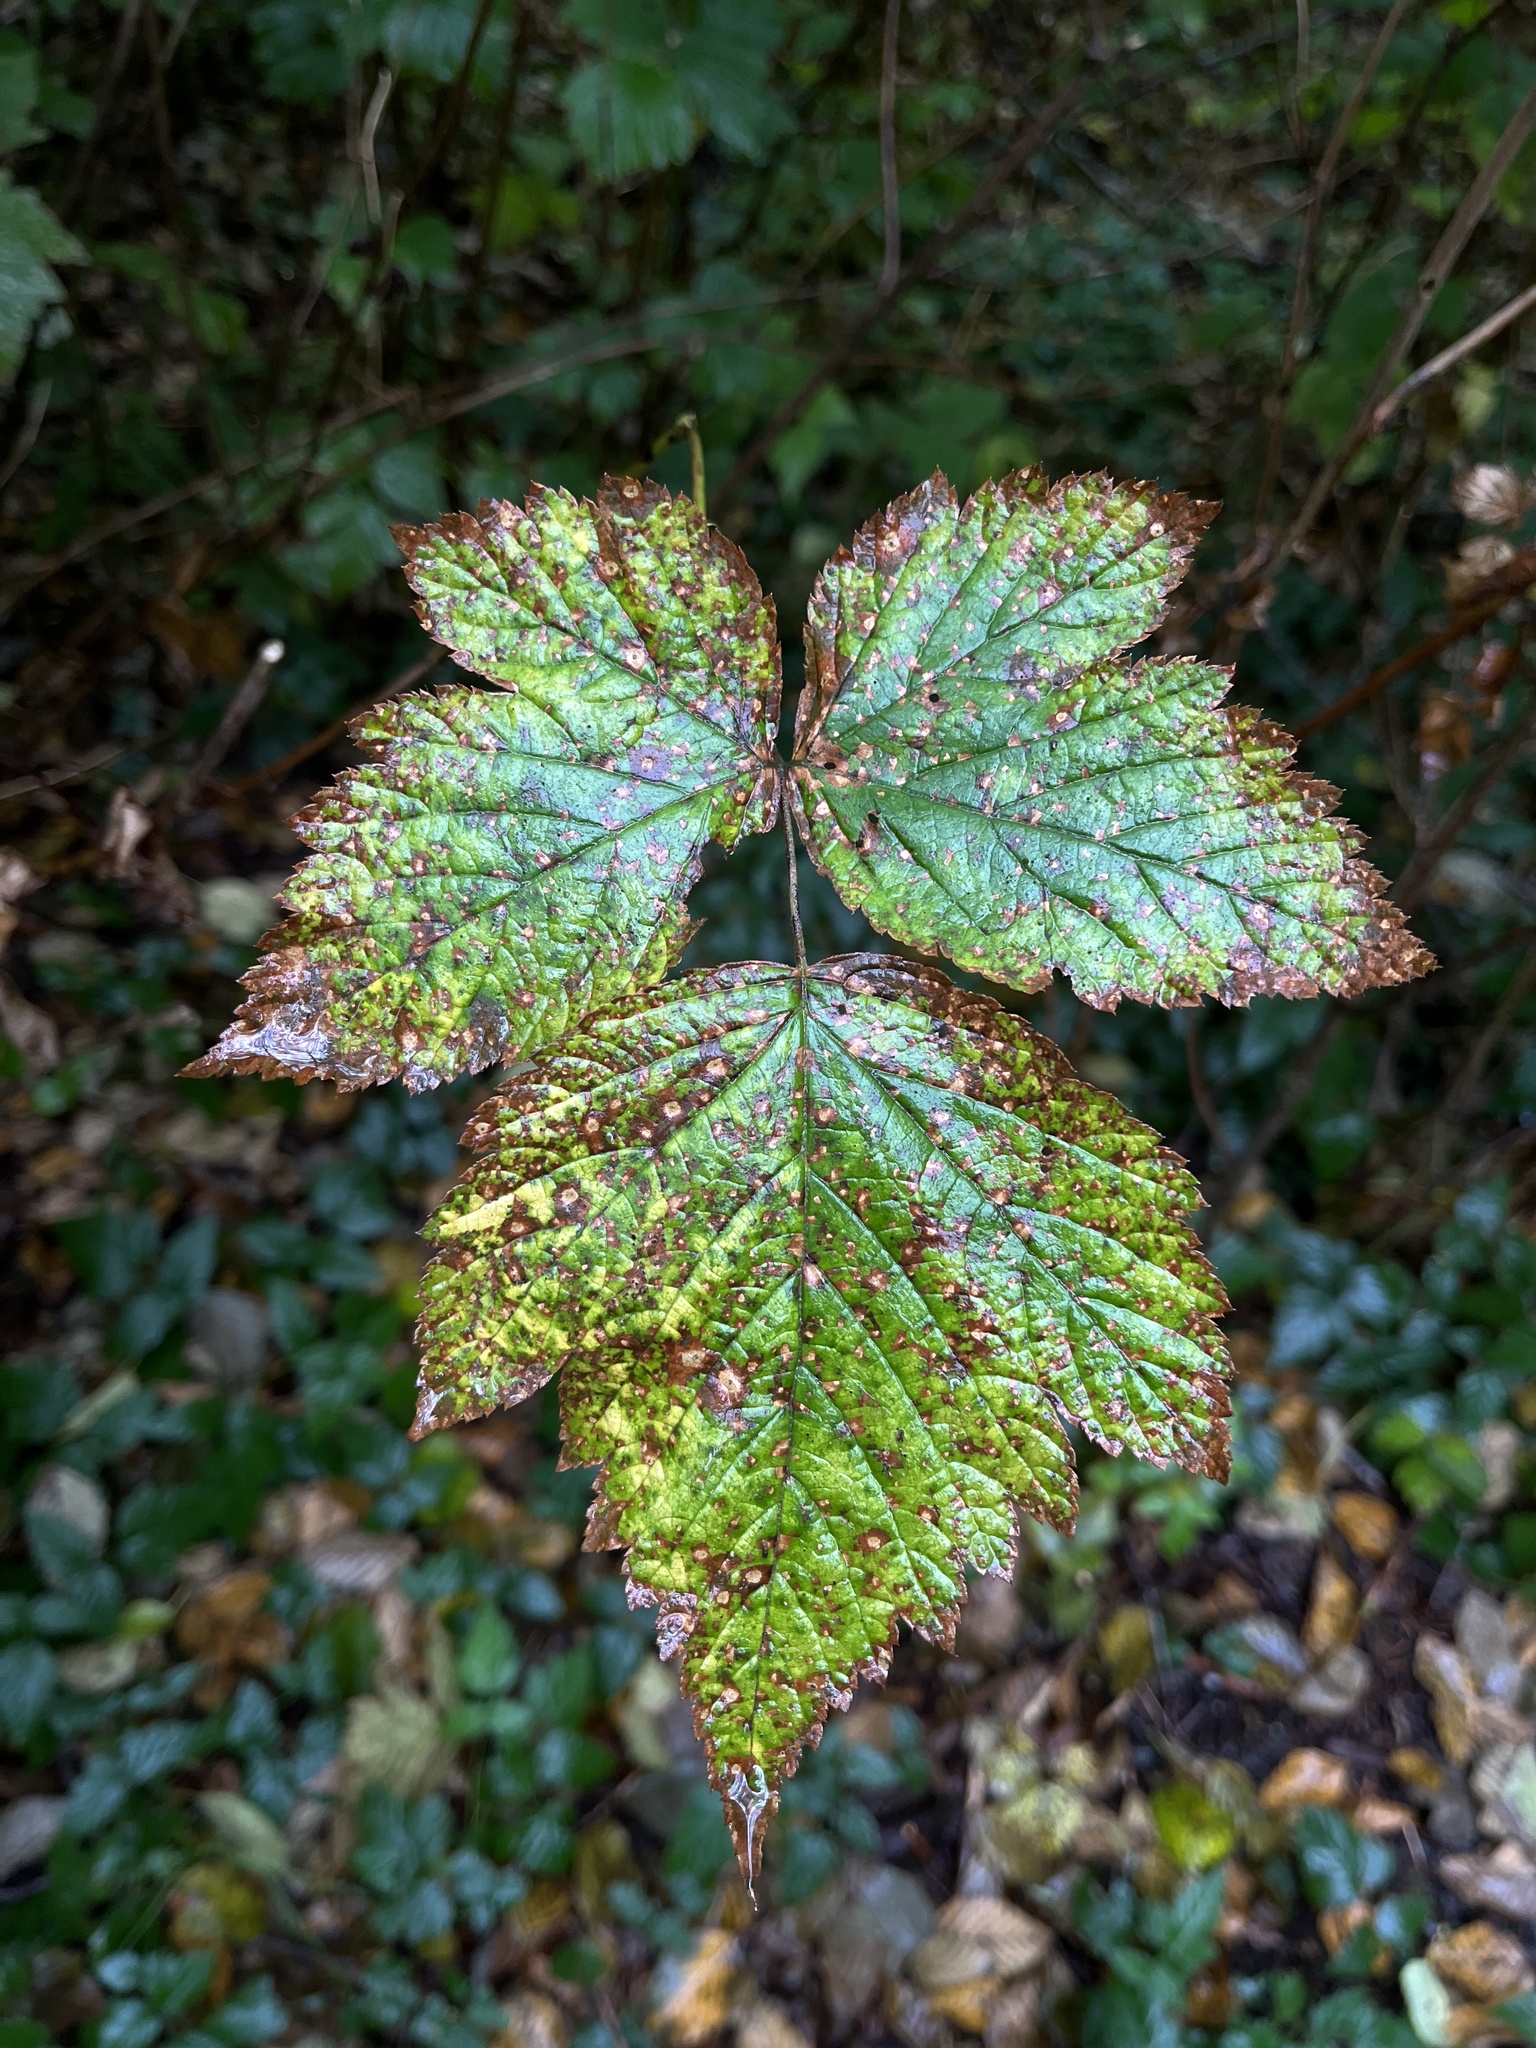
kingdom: Plantae
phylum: Tracheophyta
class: Magnoliopsida
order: Rosales
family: Rosaceae
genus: Rubus
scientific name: Rubus spectabilis
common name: Salmonberry
